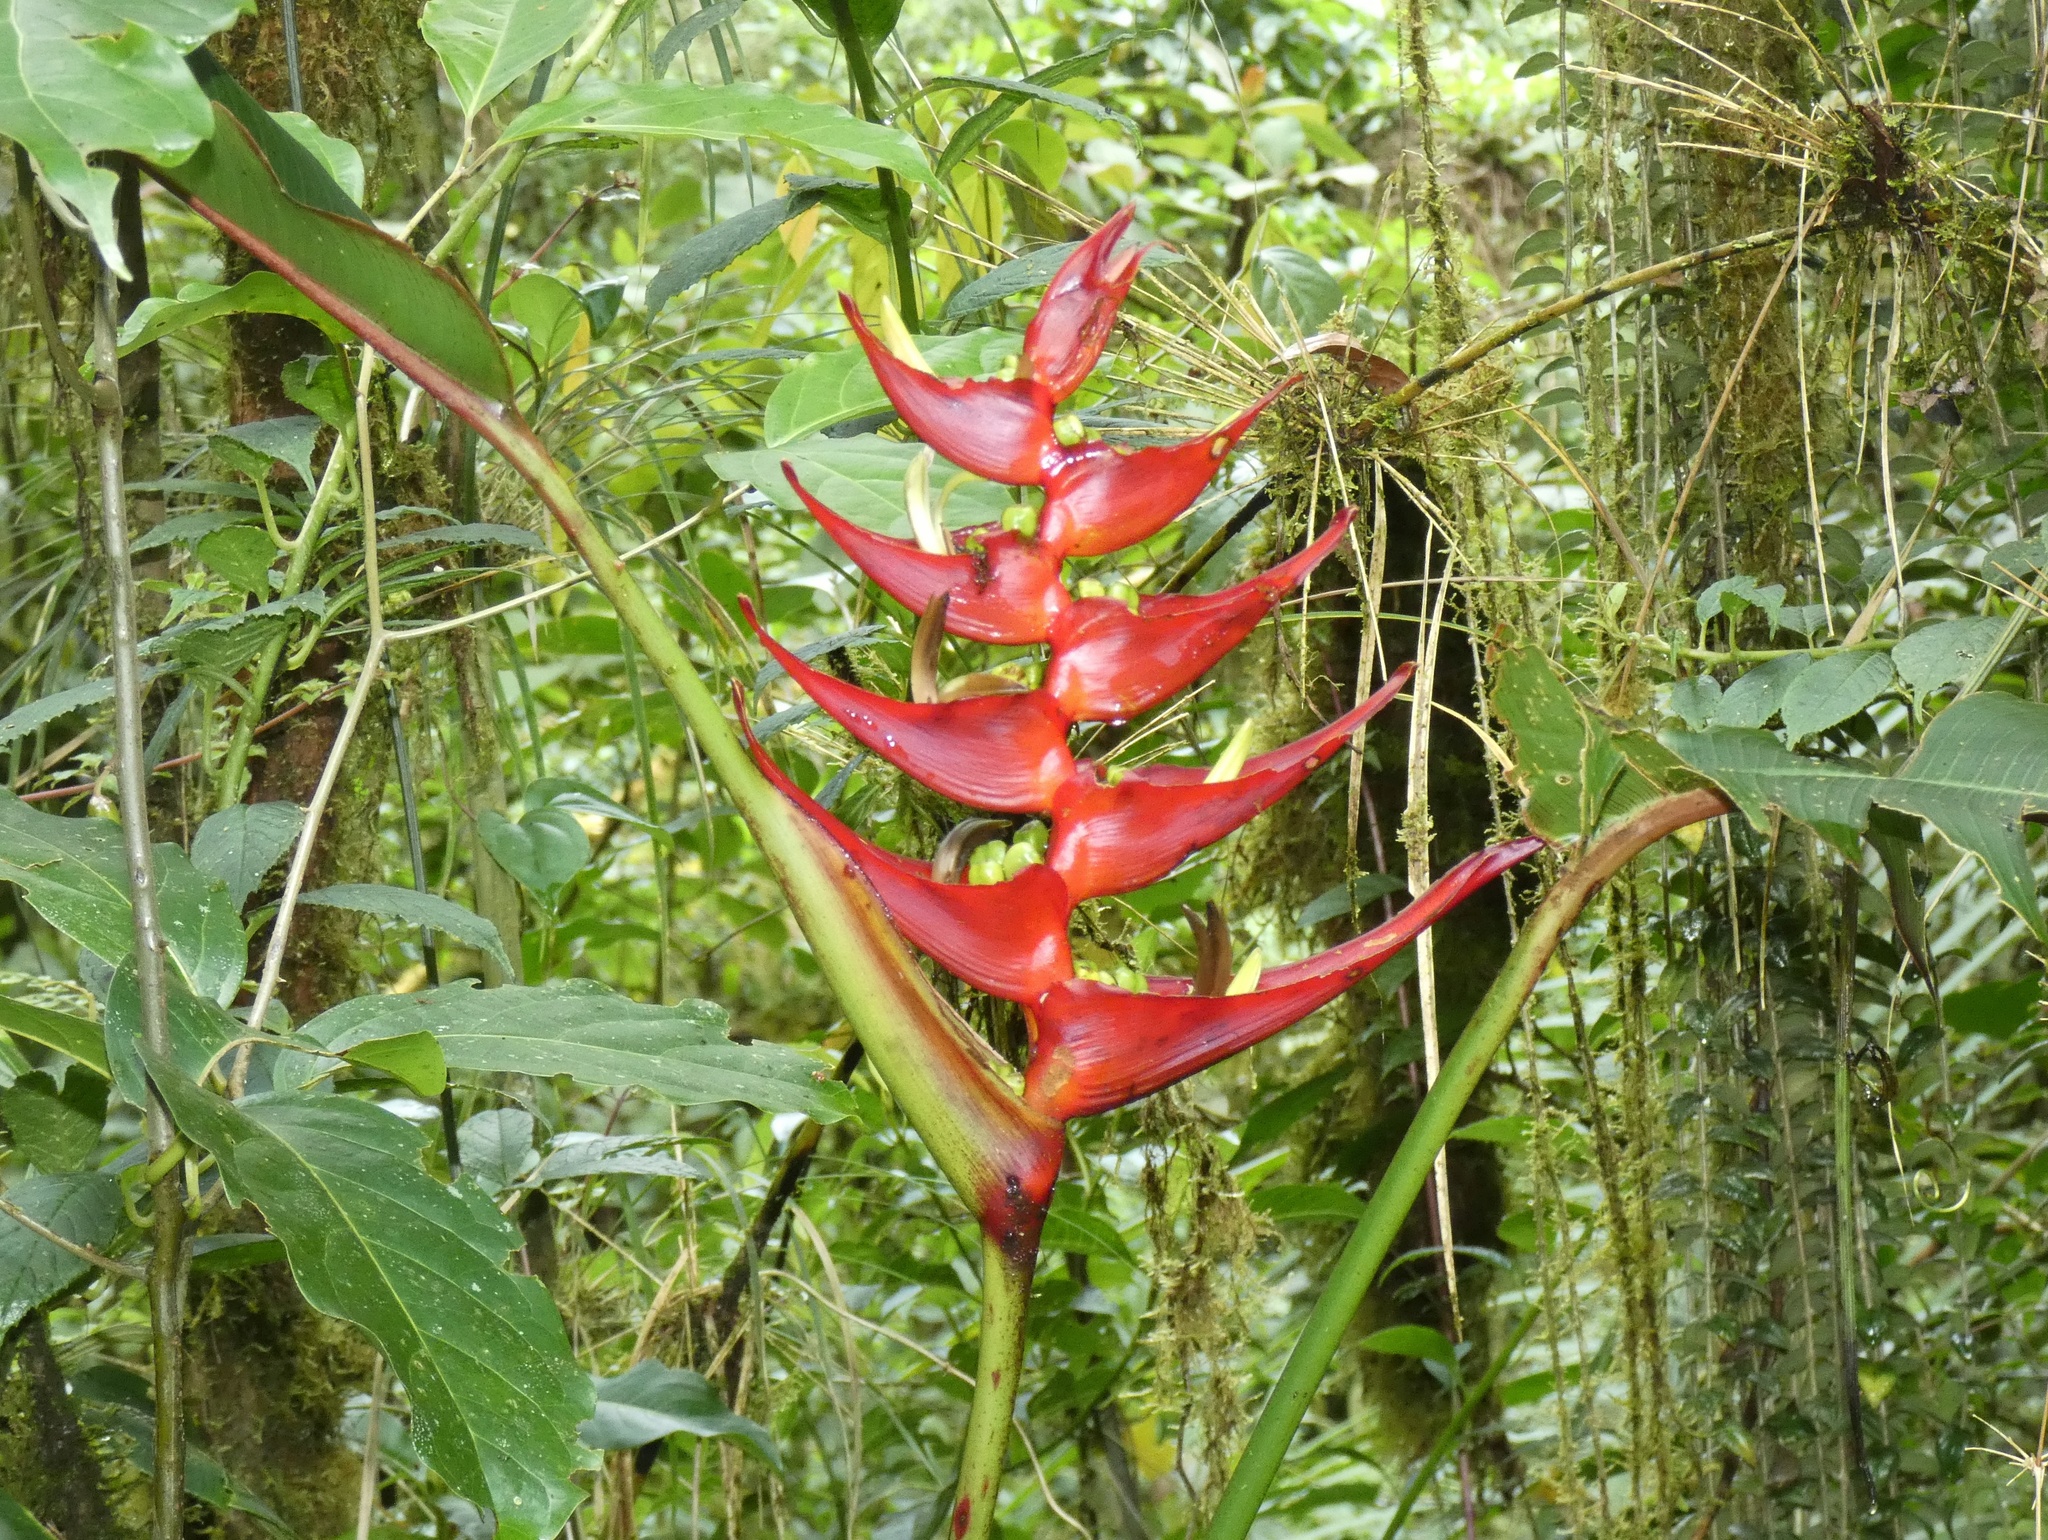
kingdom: Plantae
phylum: Tracheophyta
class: Liliopsida
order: Zingiberales
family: Heliconiaceae
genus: Heliconia
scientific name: Heliconia lankesteri
